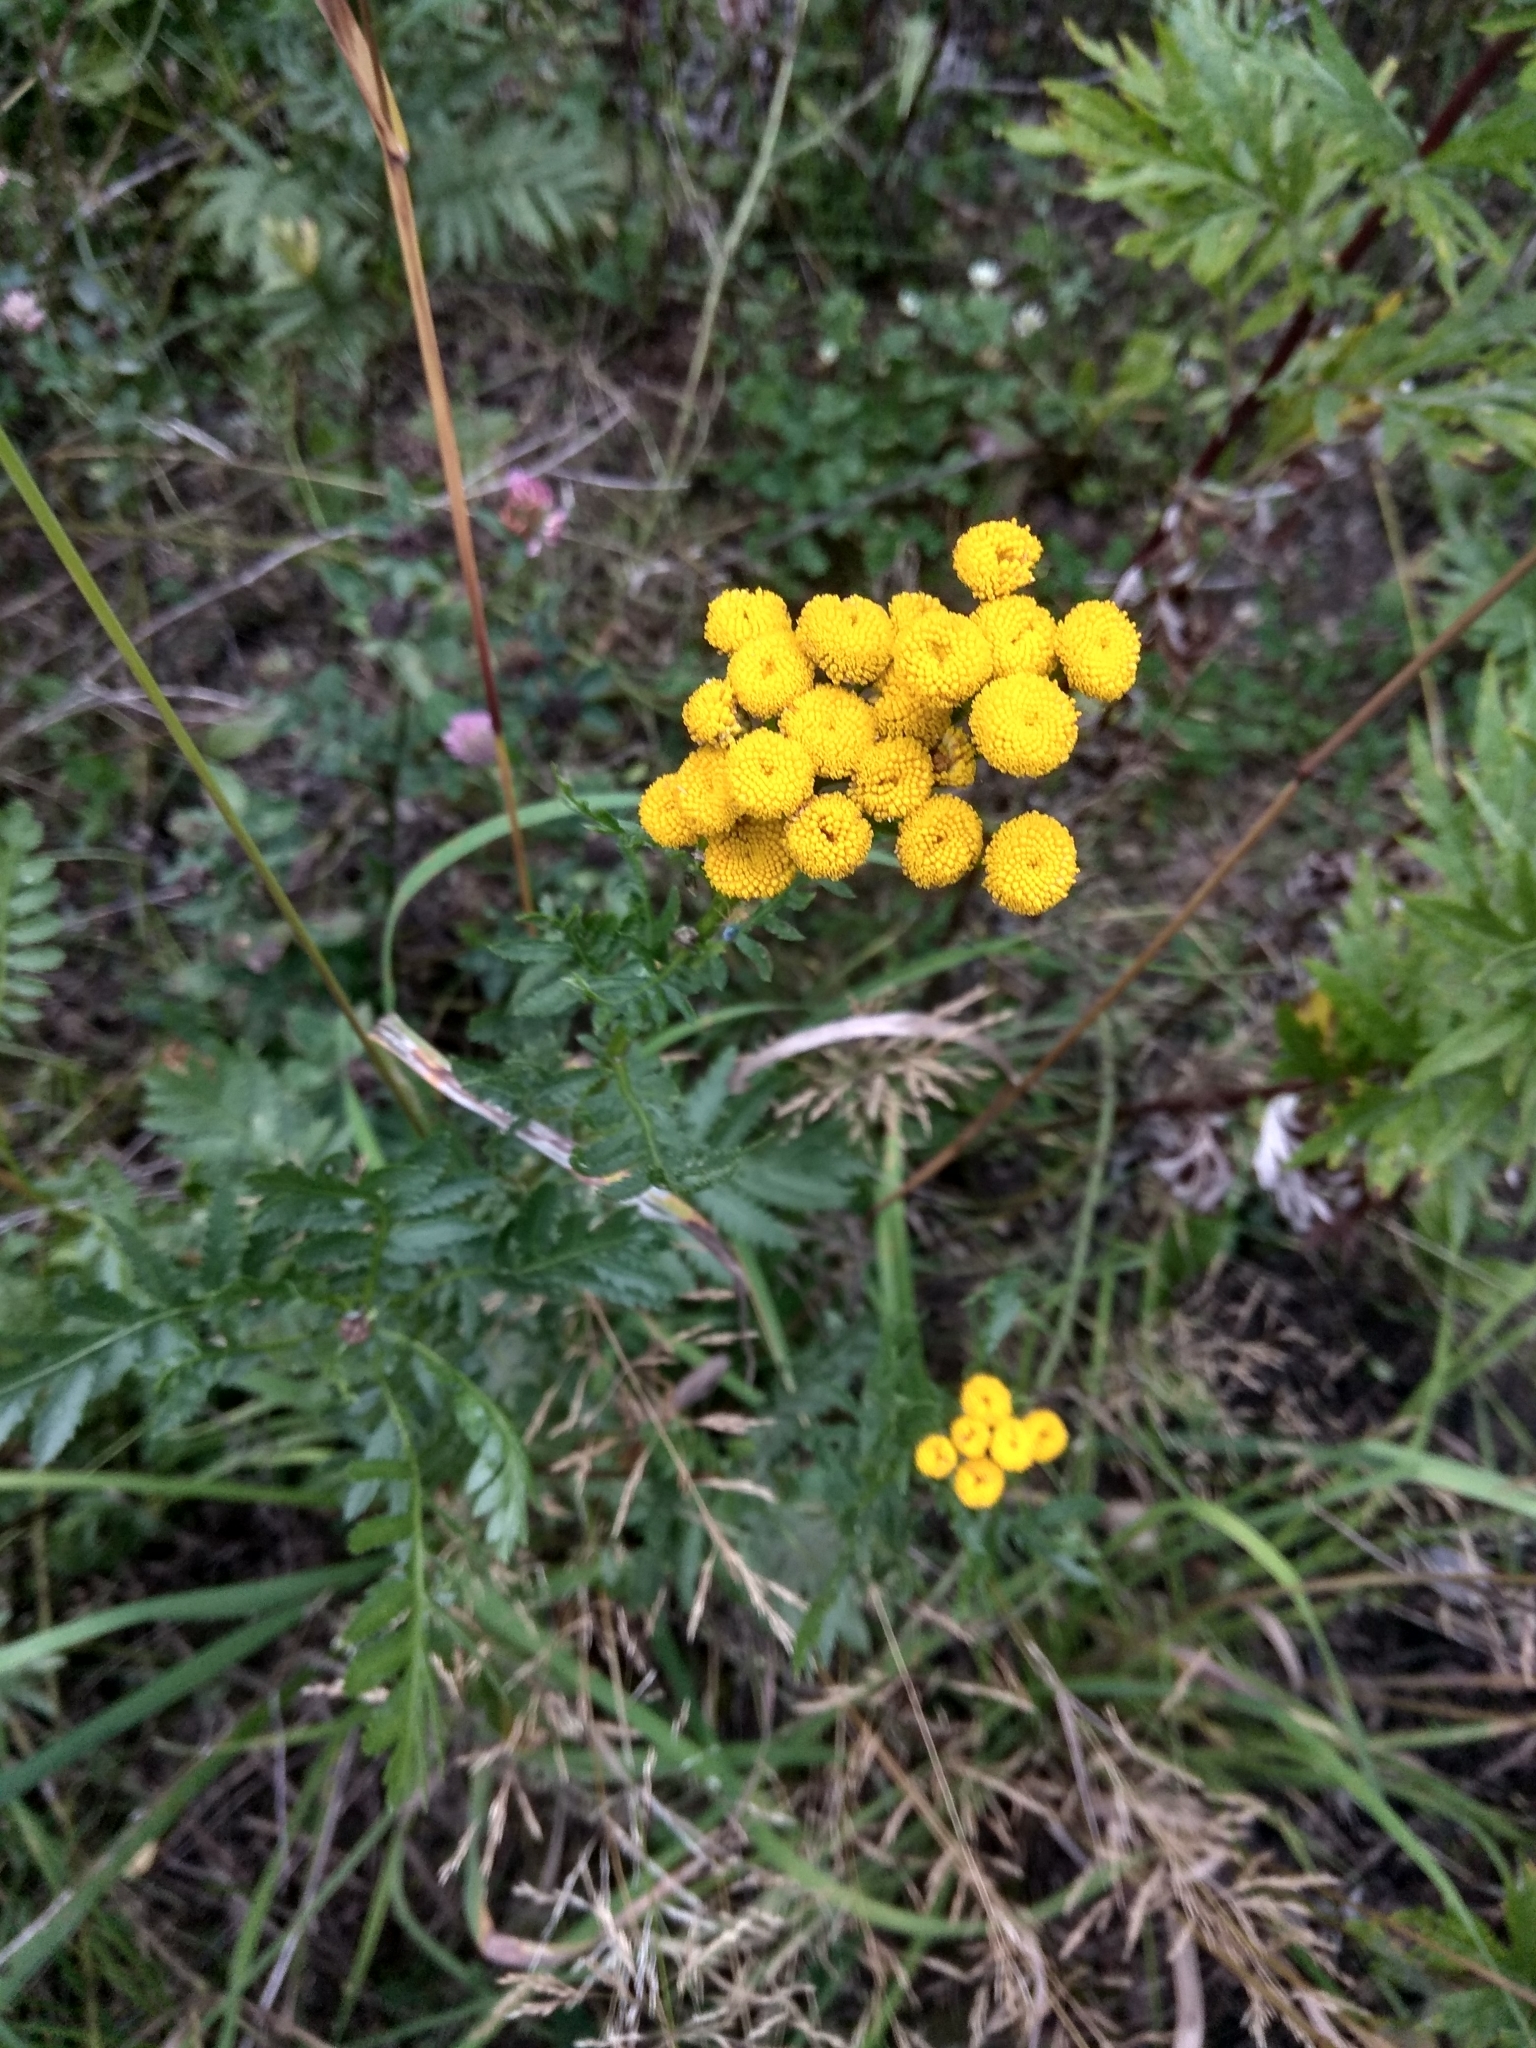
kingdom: Plantae
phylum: Tracheophyta
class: Magnoliopsida
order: Asterales
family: Asteraceae
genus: Tanacetum
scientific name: Tanacetum vulgare
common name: Common tansy
